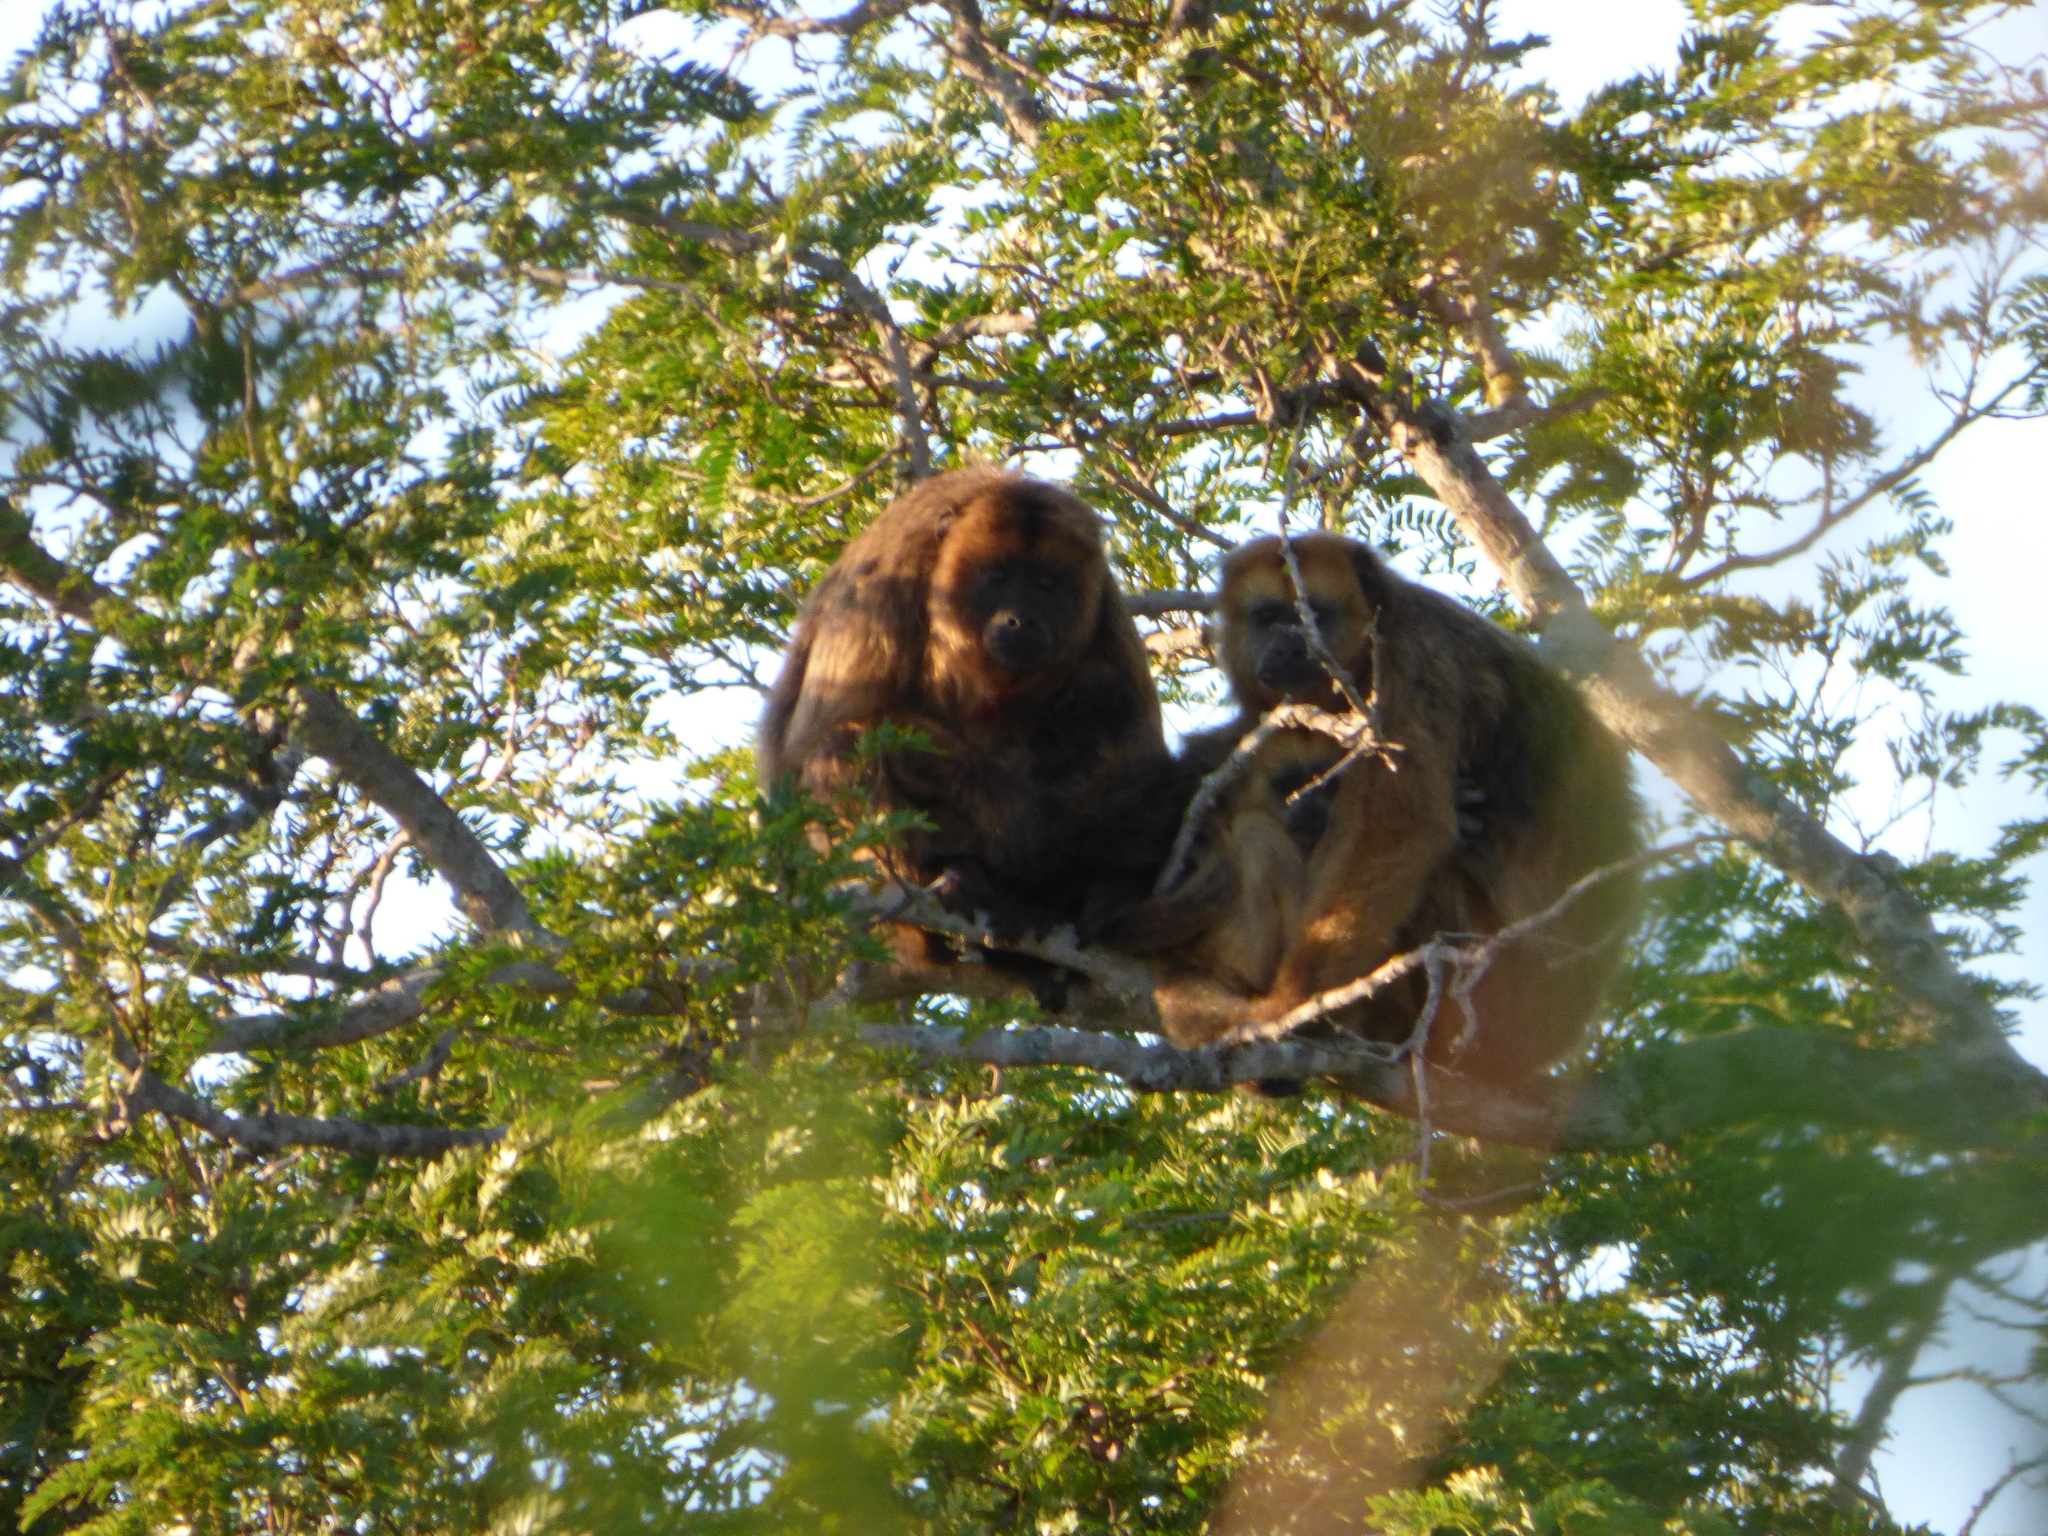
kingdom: Animalia
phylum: Chordata
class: Mammalia
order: Primates
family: Atelidae
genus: Alouatta
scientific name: Alouatta caraya
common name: Black howler
